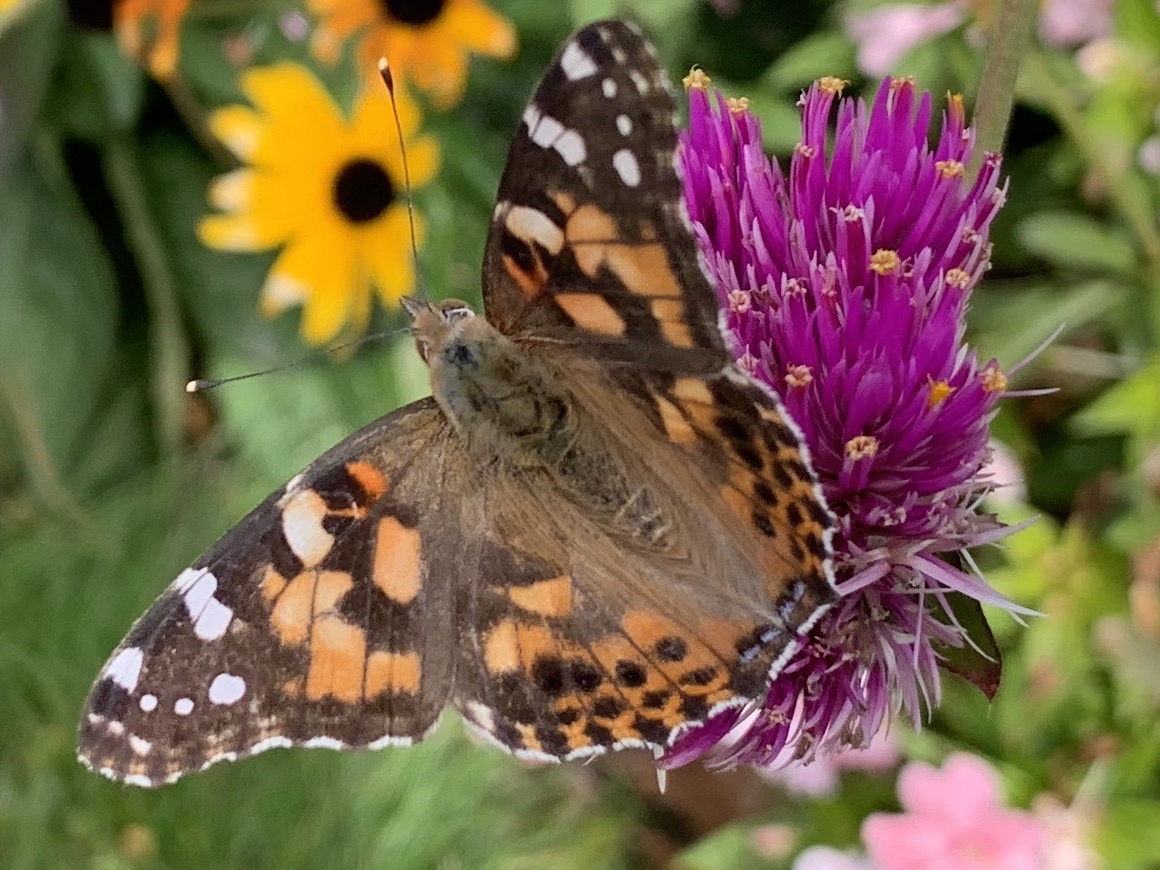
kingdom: Animalia
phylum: Arthropoda
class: Insecta
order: Lepidoptera
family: Nymphalidae
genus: Vanessa
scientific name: Vanessa cardui
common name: Painted lady
